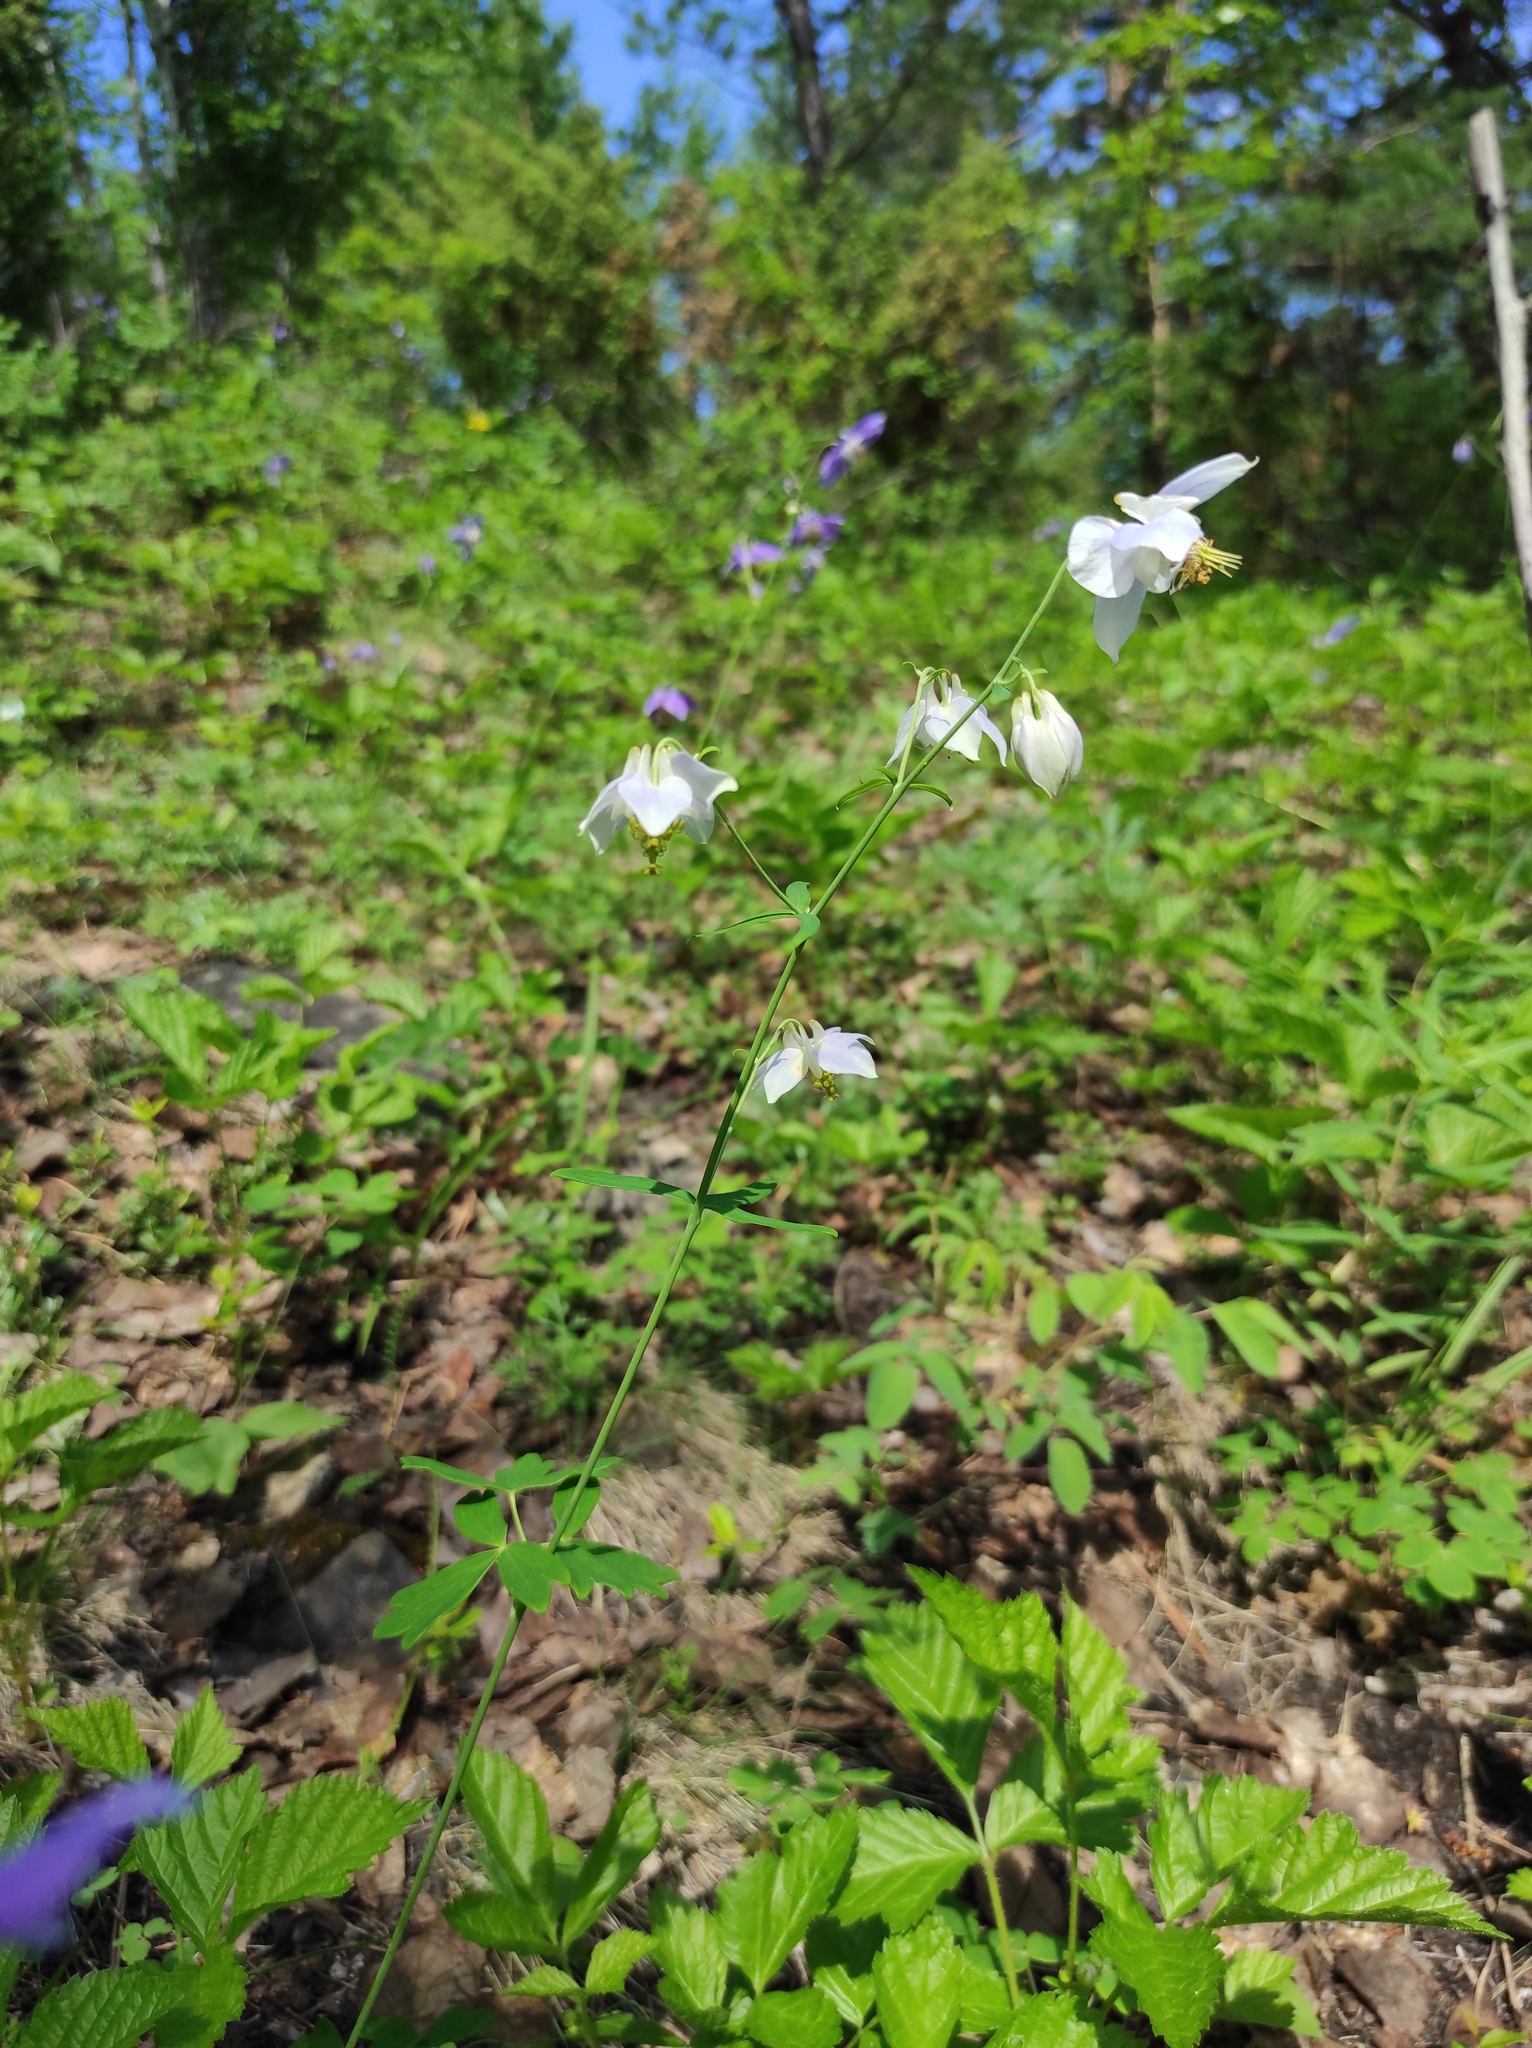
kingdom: Plantae
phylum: Tracheophyta
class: Magnoliopsida
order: Ranunculales
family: Ranunculaceae
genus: Aquilegia
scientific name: Aquilegia parviflora
